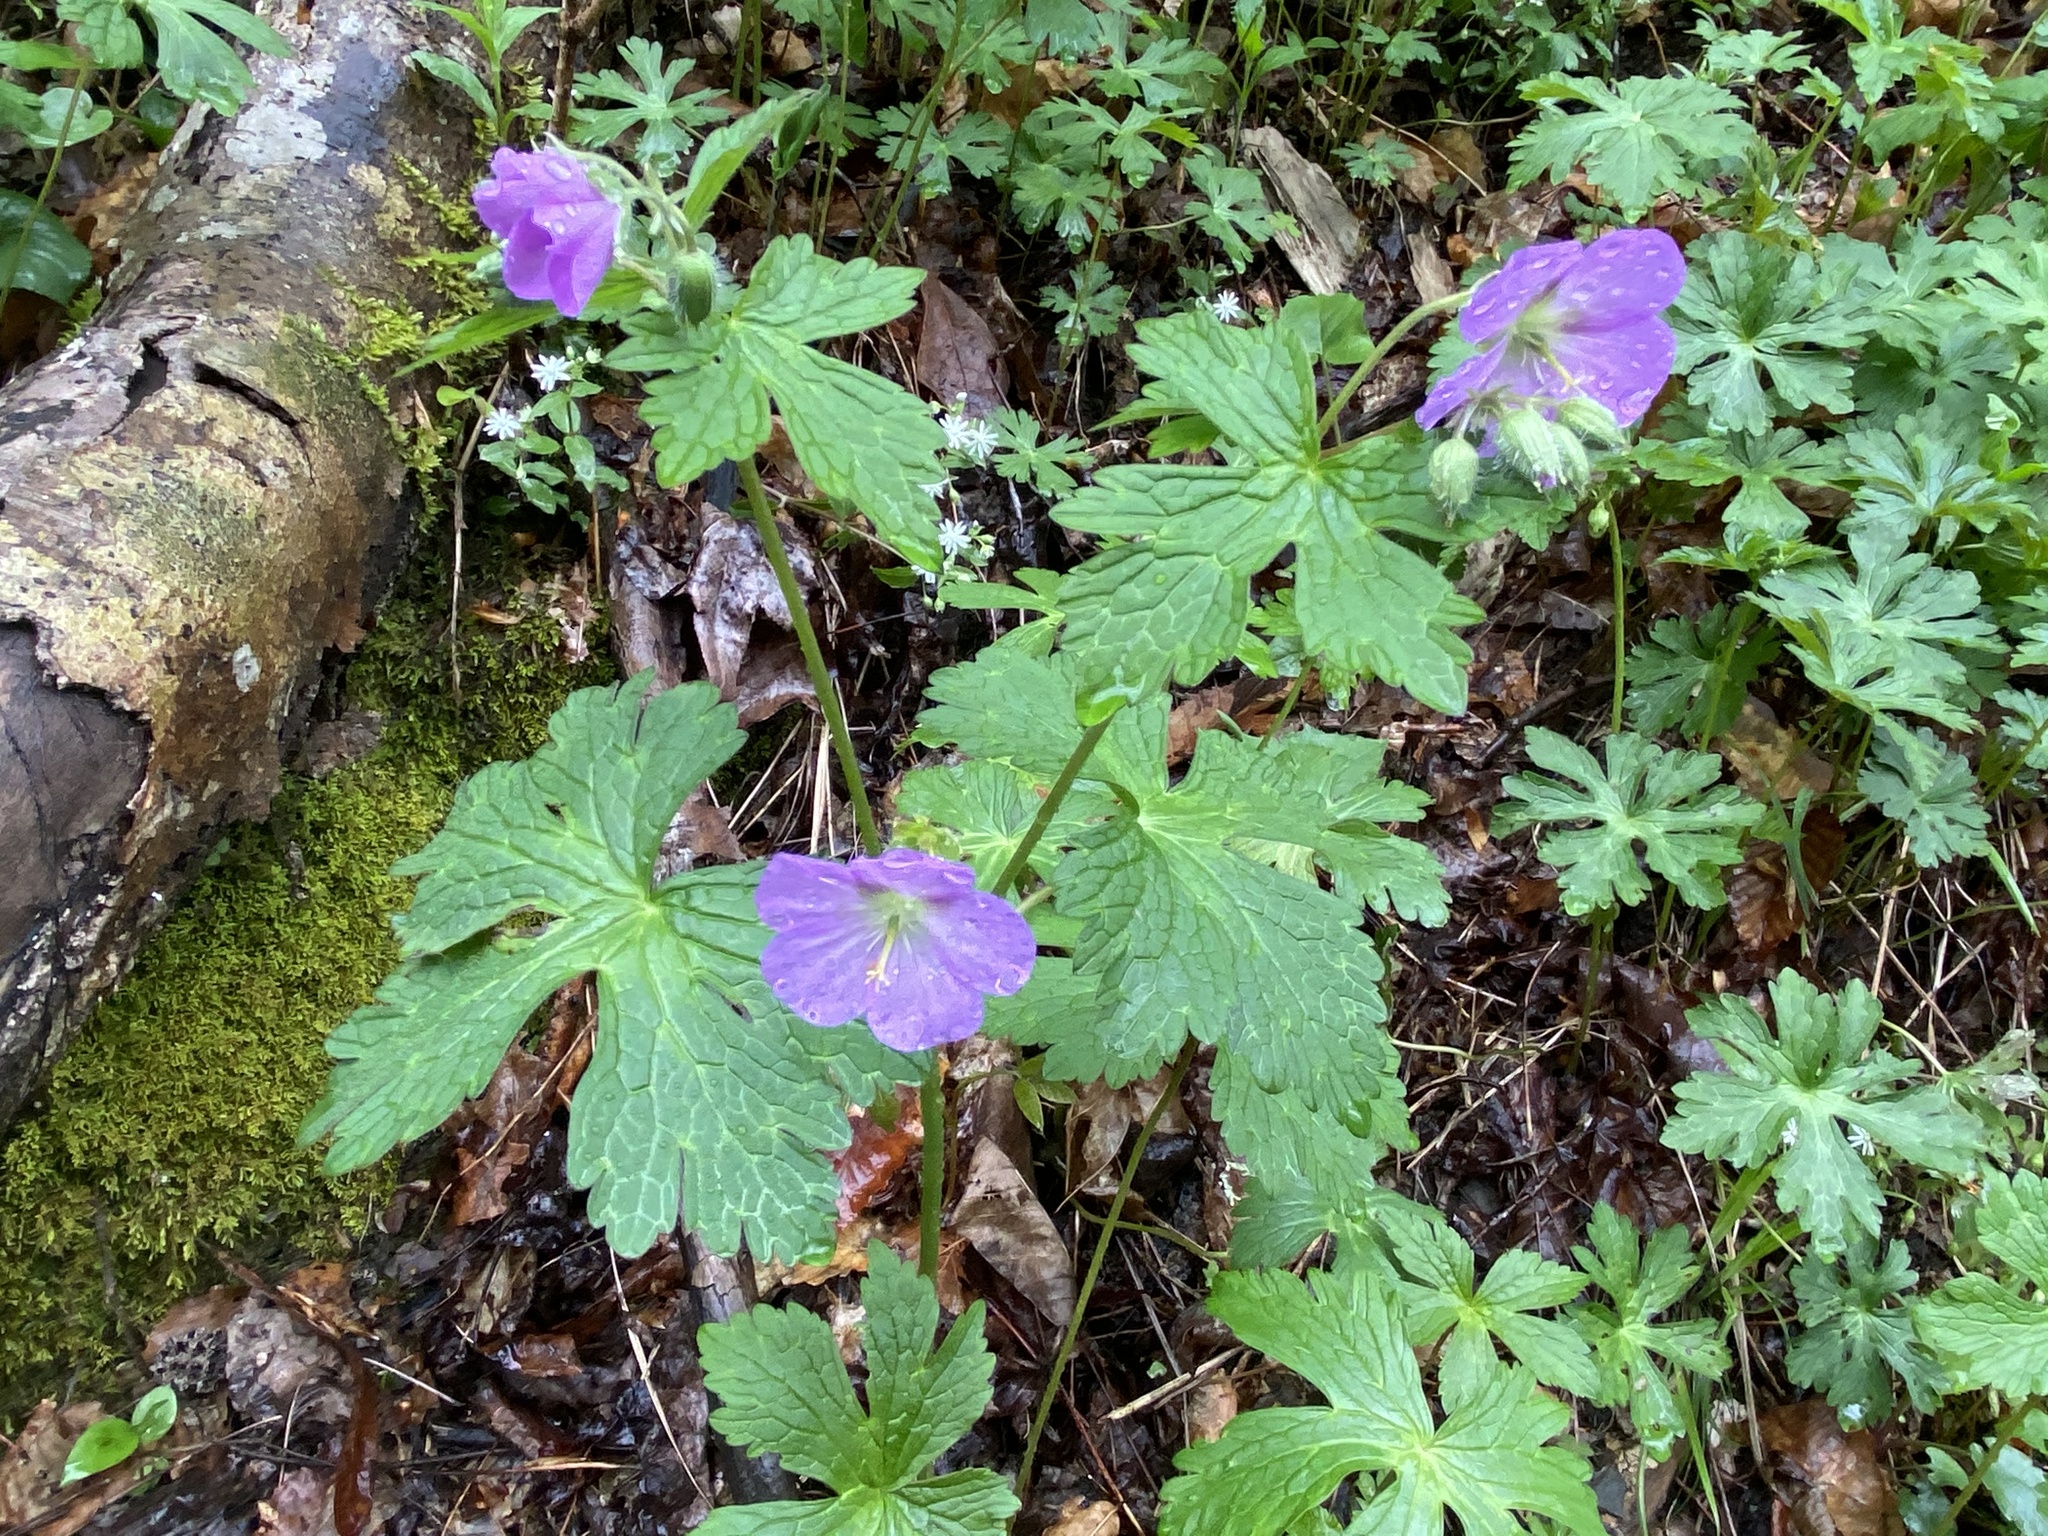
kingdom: Plantae
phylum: Tracheophyta
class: Magnoliopsida
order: Geraniales
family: Geraniaceae
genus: Geranium
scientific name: Geranium maculatum
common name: Spotted geranium
